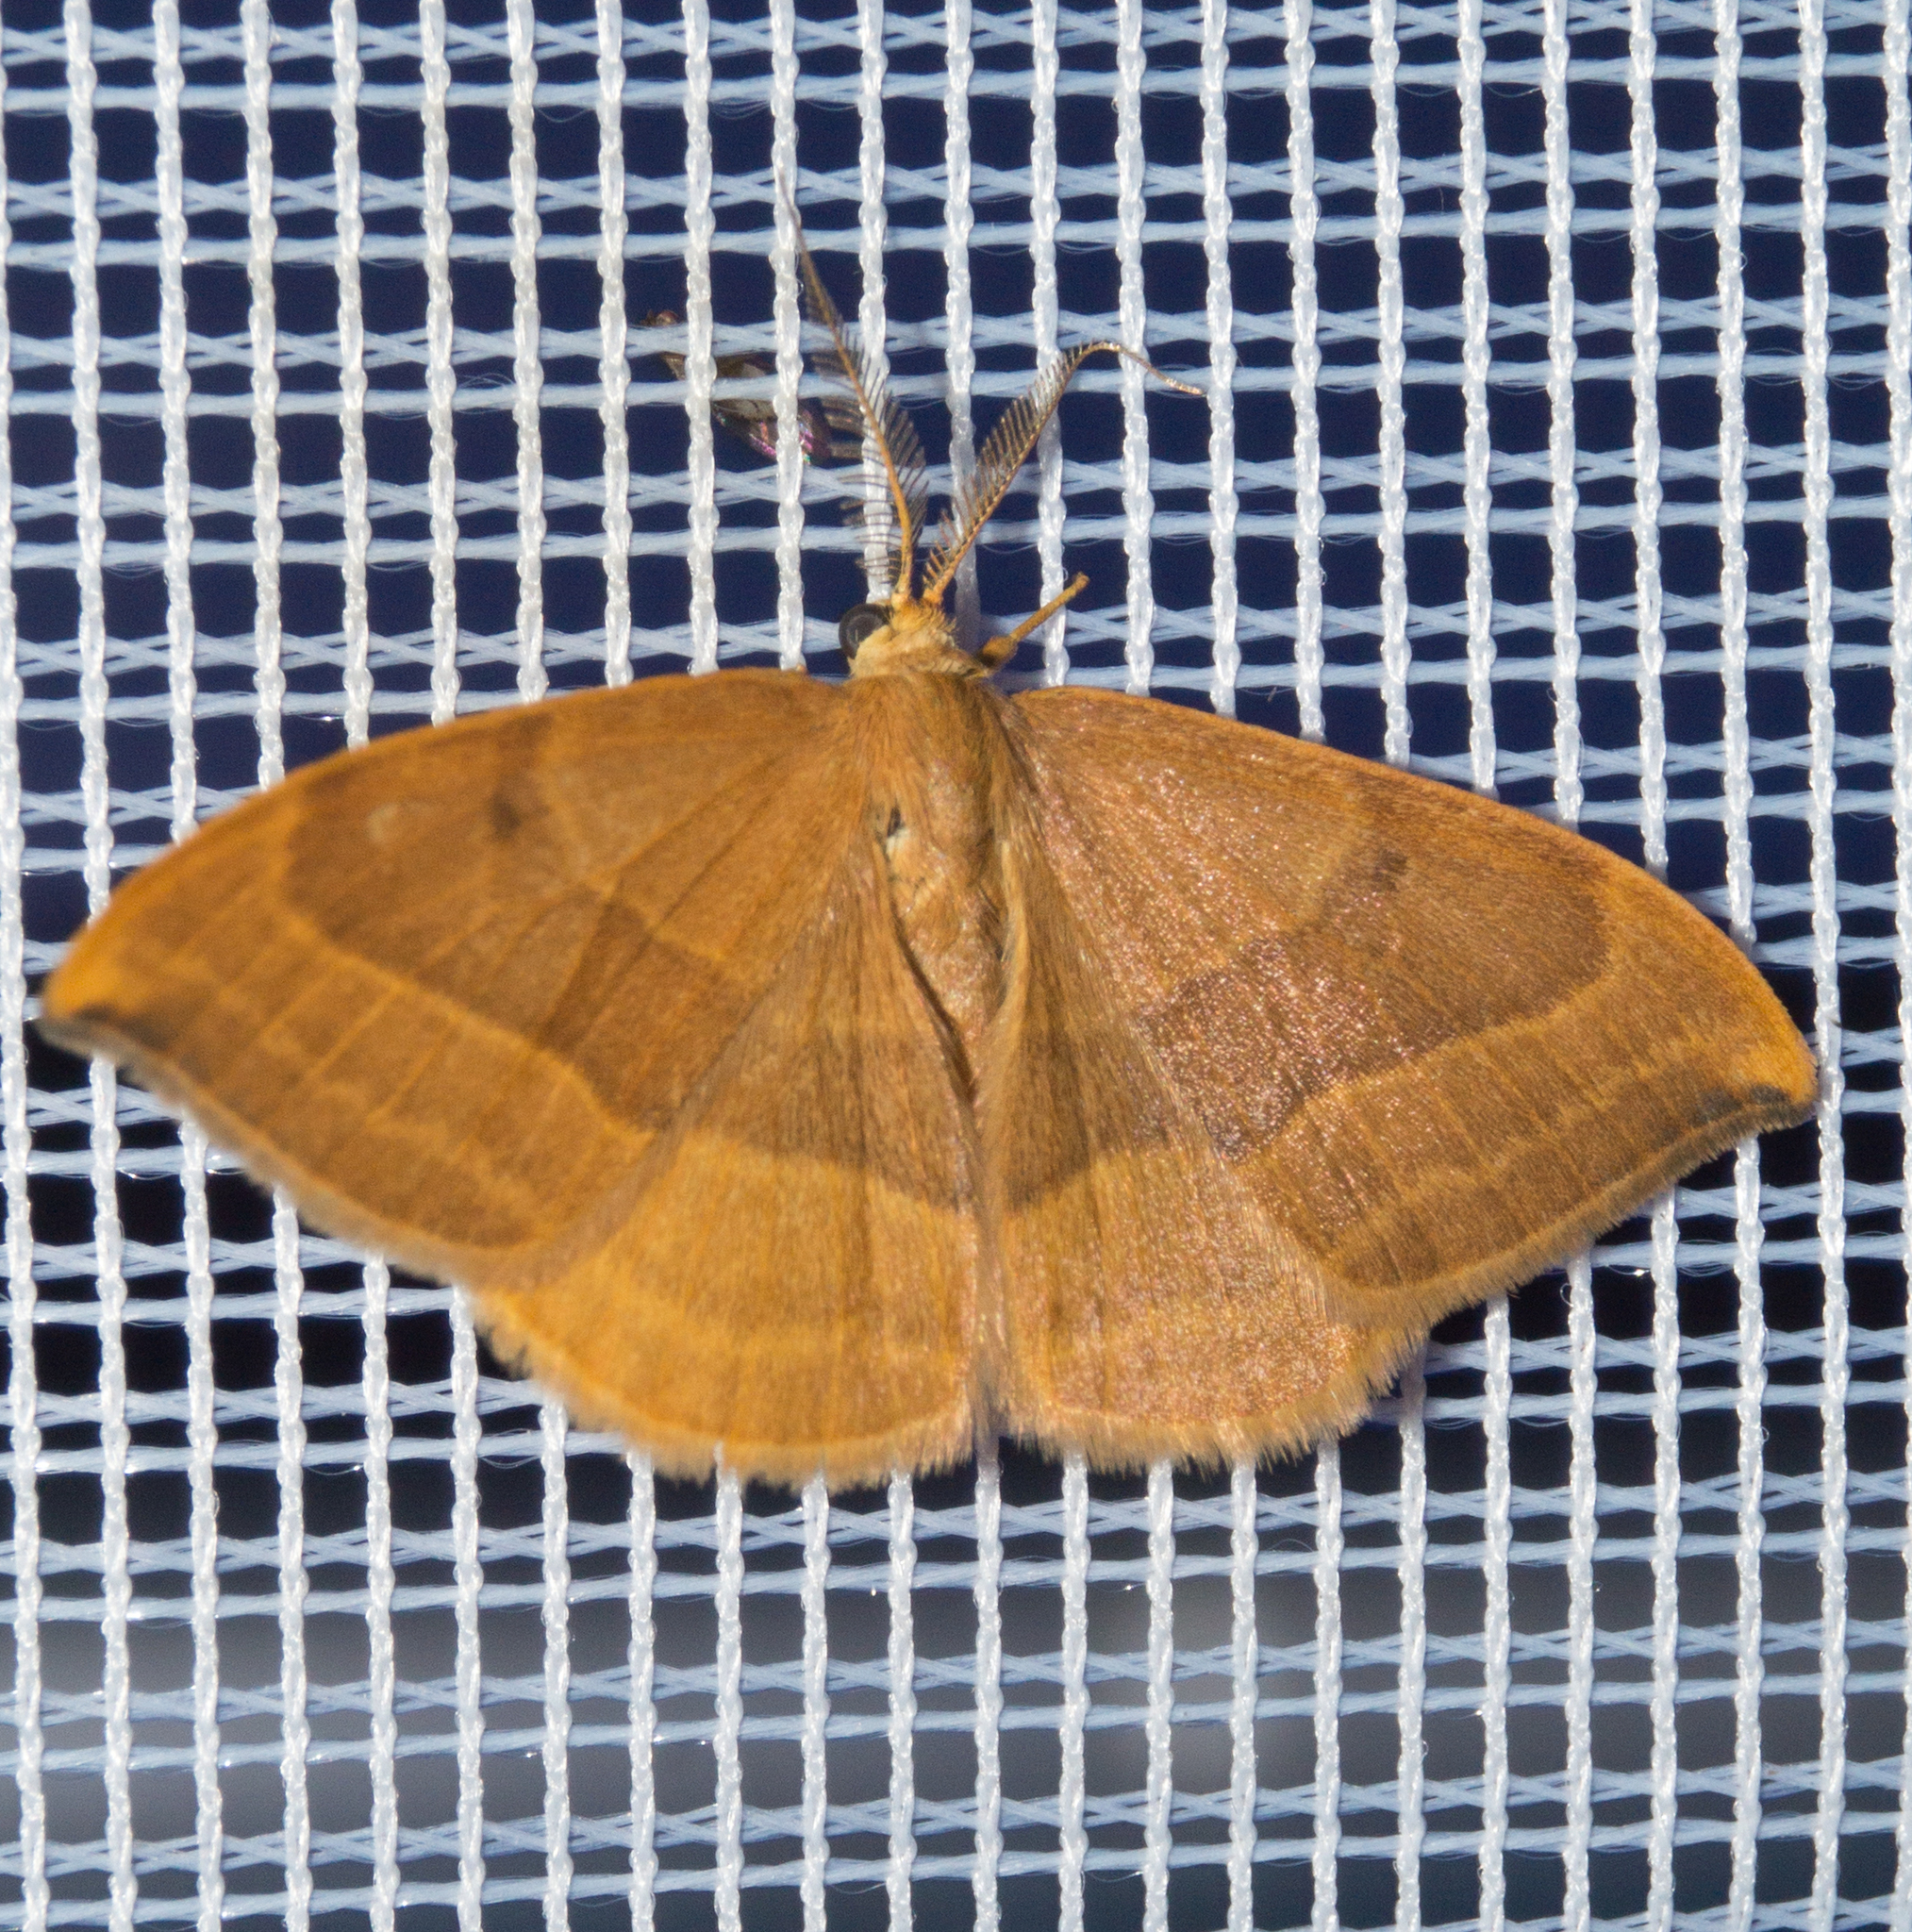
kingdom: Animalia
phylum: Arthropoda
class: Insecta
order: Lepidoptera
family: Drepanidae
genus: Watsonalla
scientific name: Watsonalla cultraria
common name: Barred hook-tip
